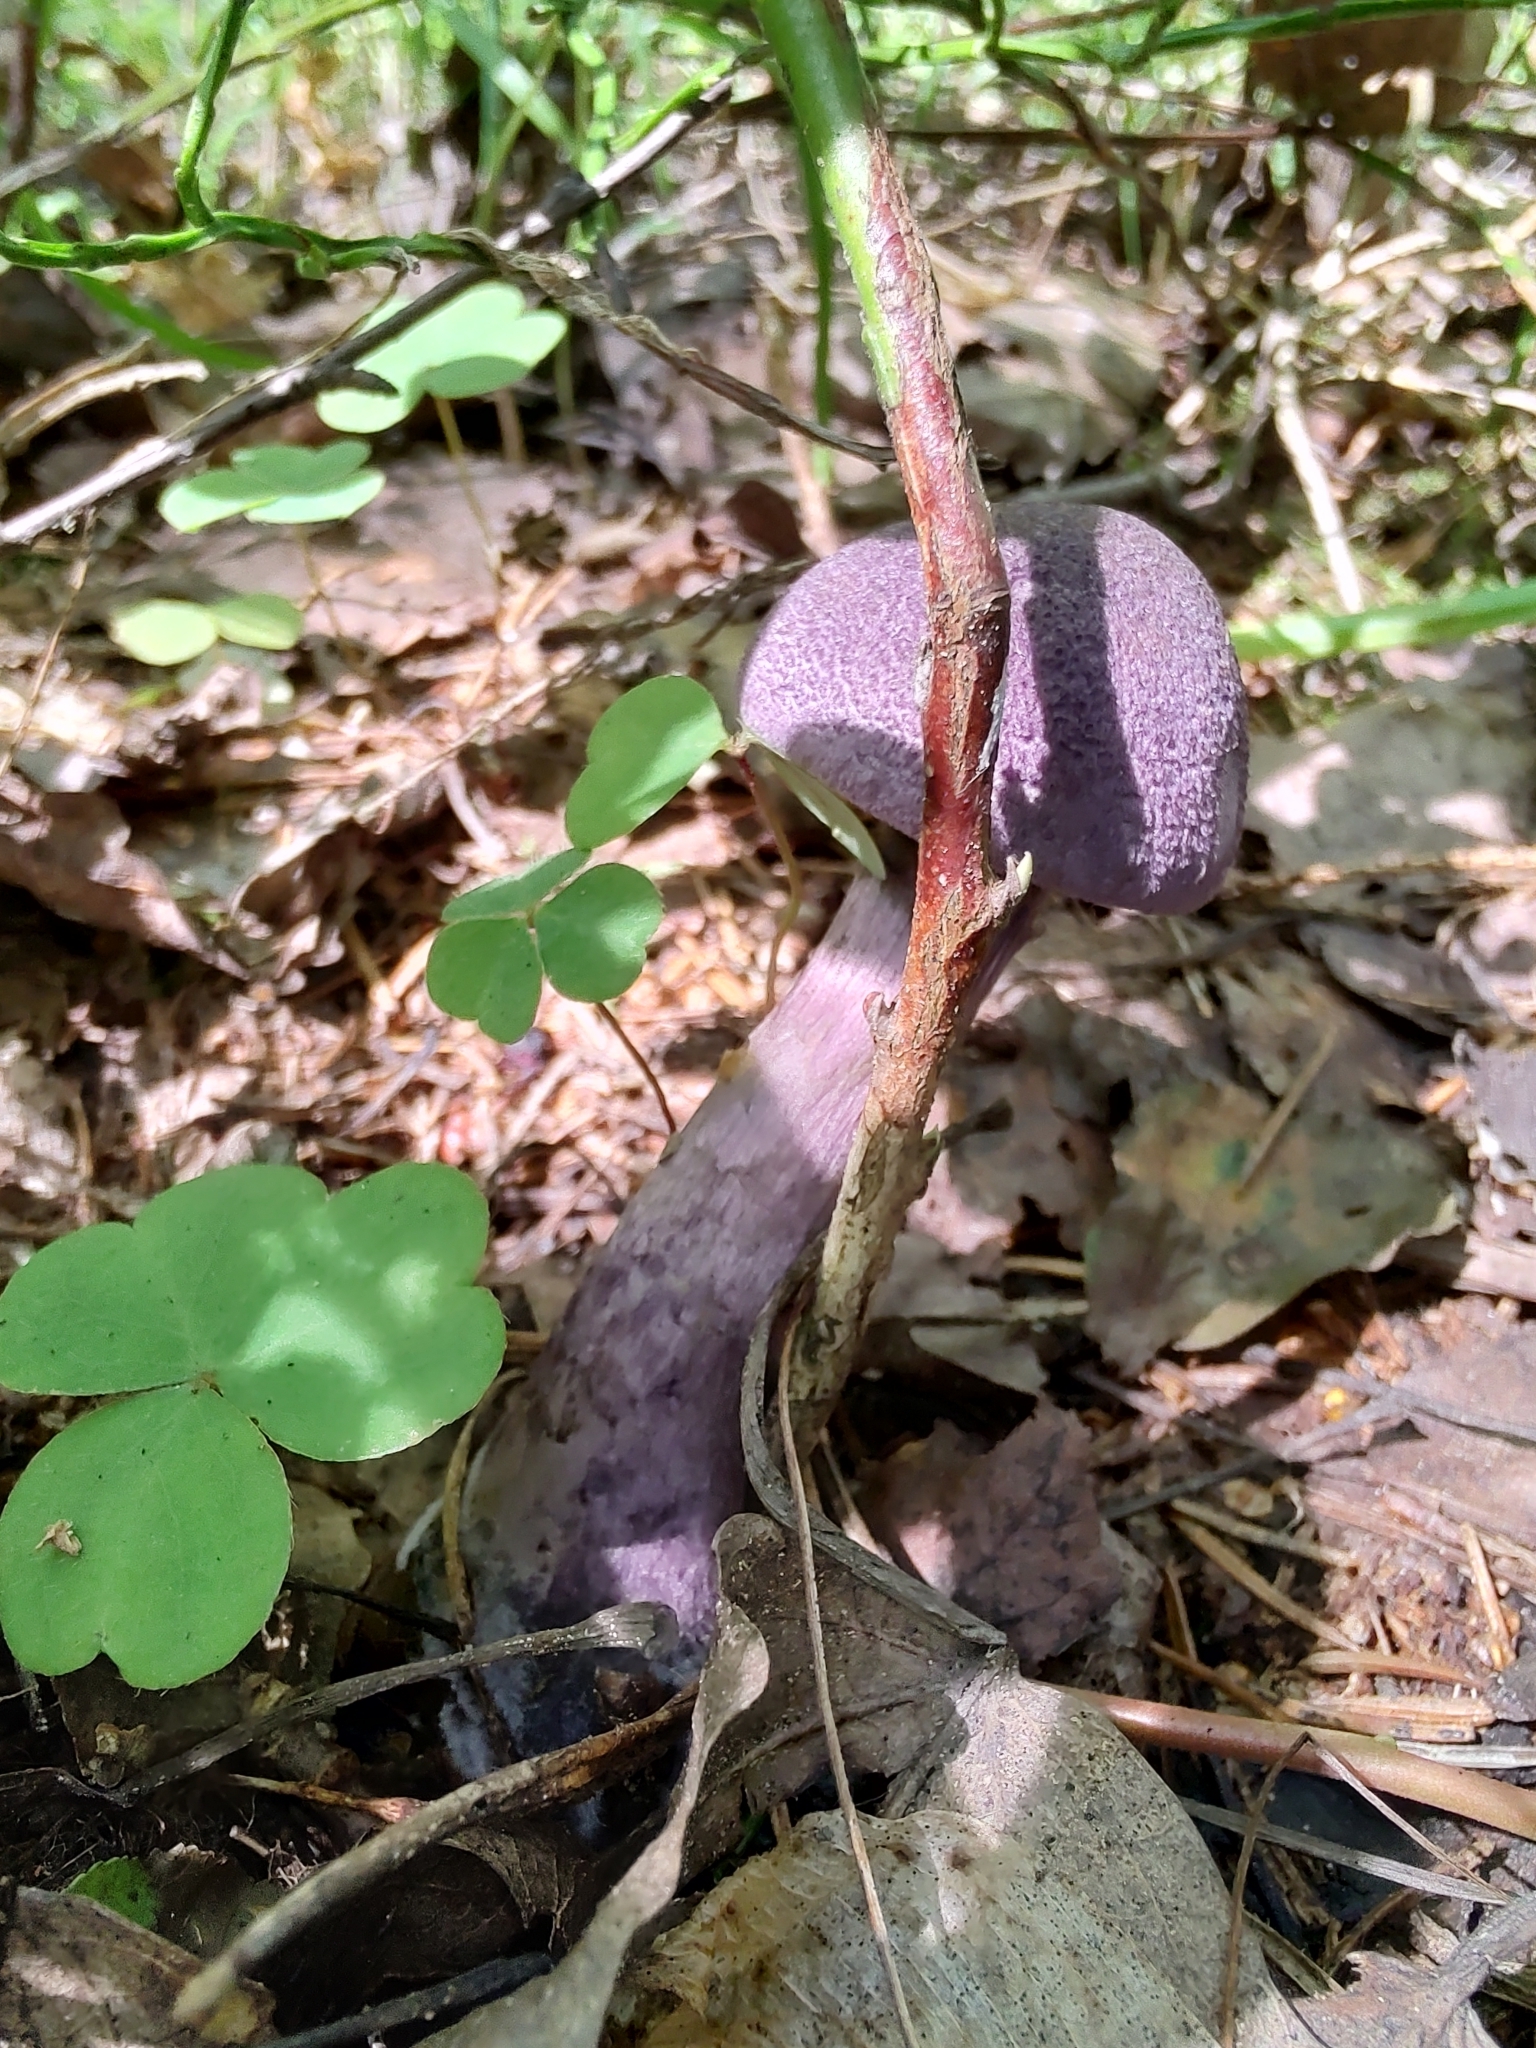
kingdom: Fungi
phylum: Basidiomycota
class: Agaricomycetes
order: Agaricales
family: Cortinariaceae
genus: Cortinarius
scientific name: Cortinarius violaceus
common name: Violet webcap
